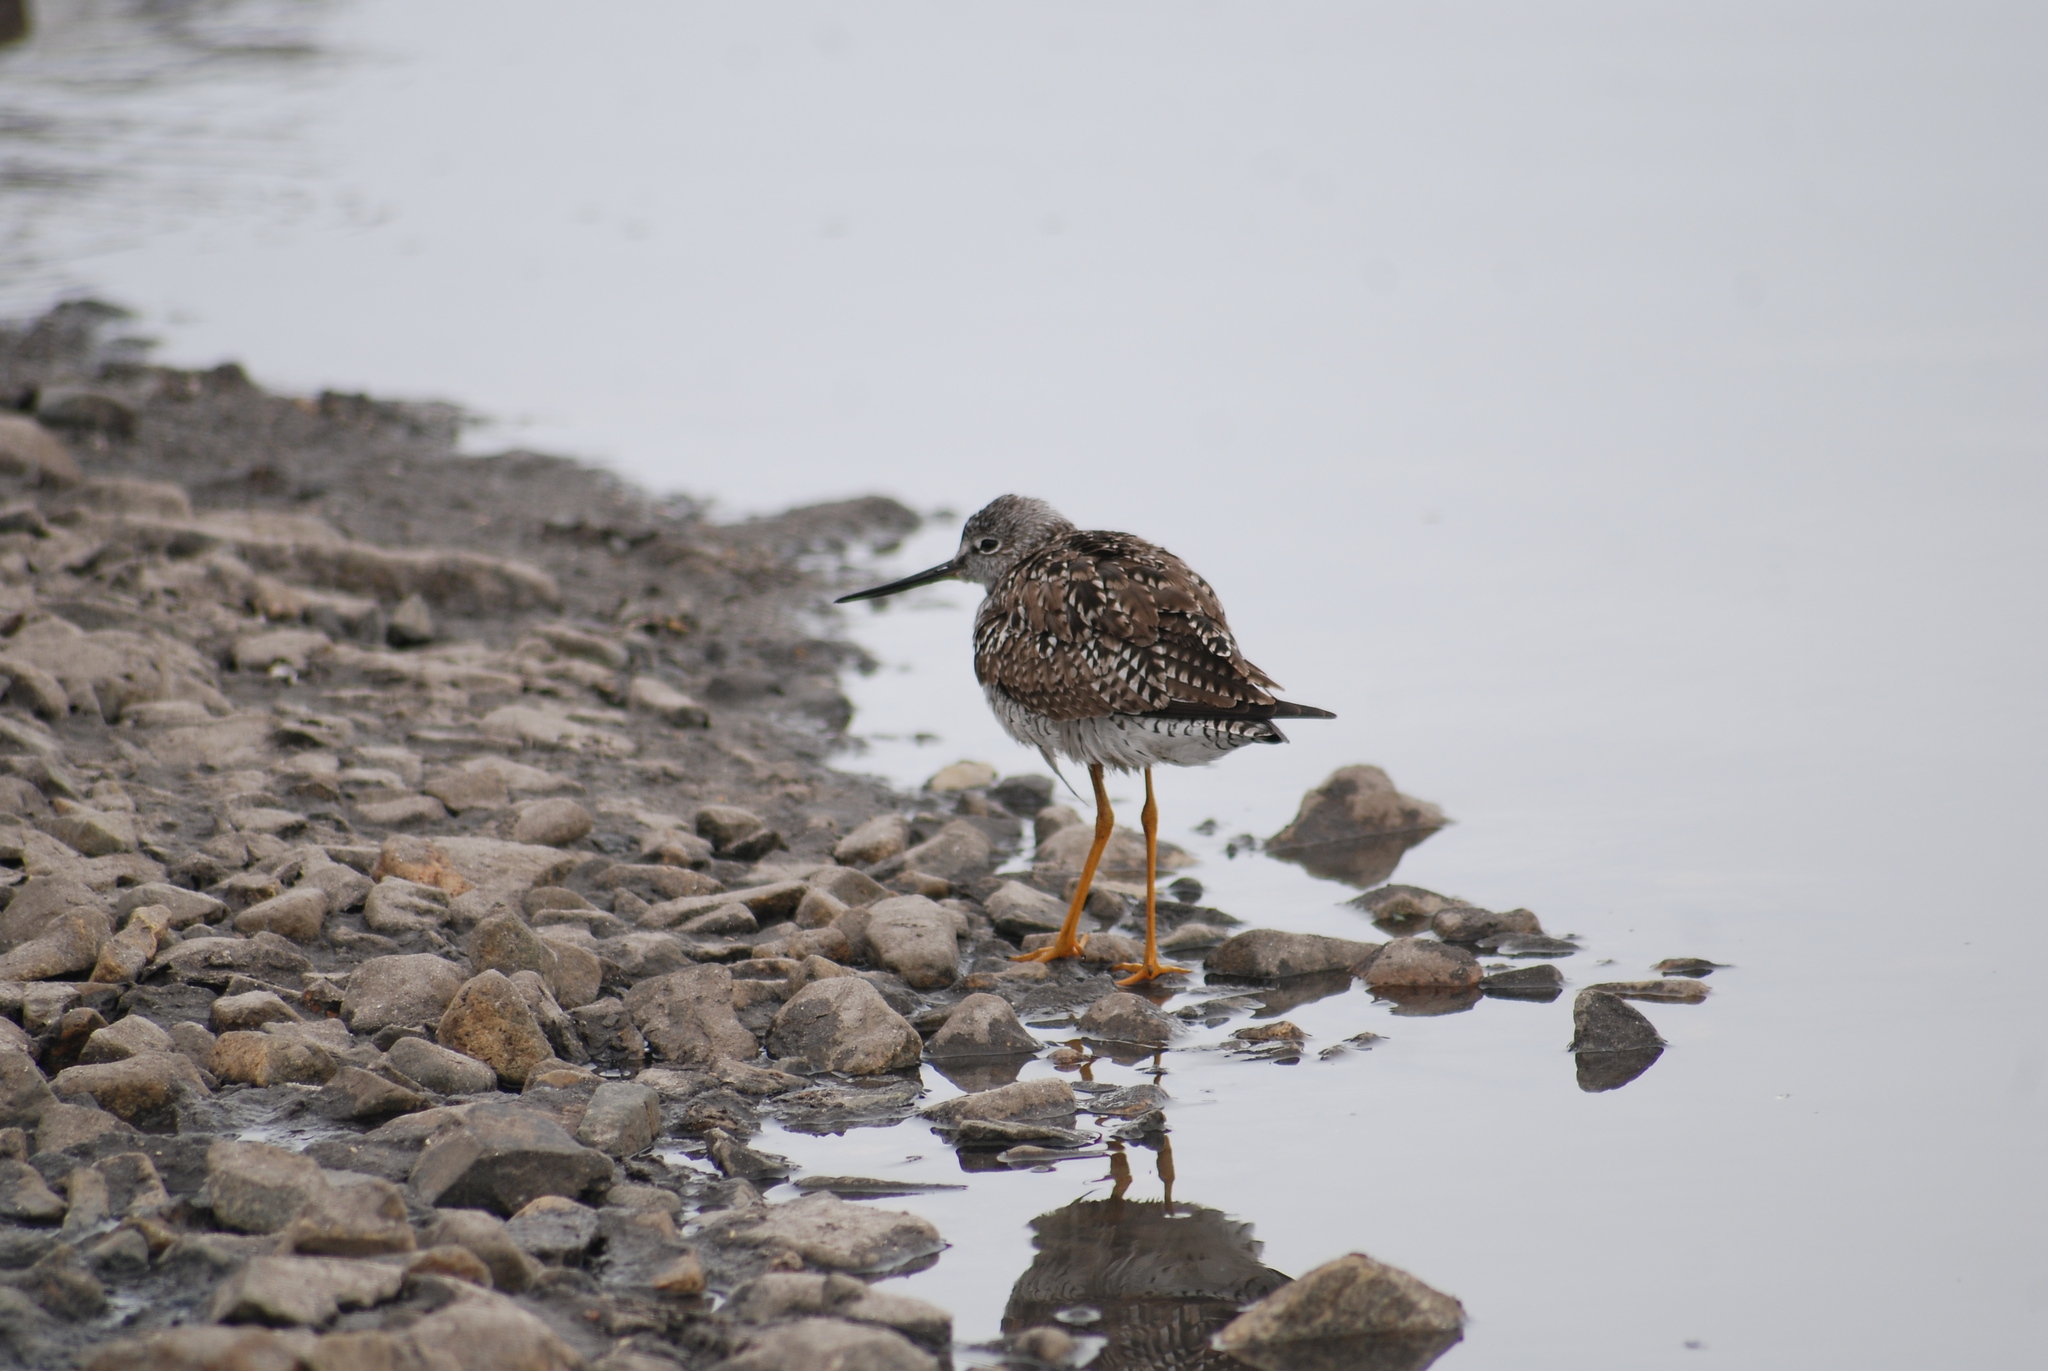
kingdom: Animalia
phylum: Chordata
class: Aves
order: Charadriiformes
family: Scolopacidae
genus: Tringa
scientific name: Tringa melanoleuca
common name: Greater yellowlegs
